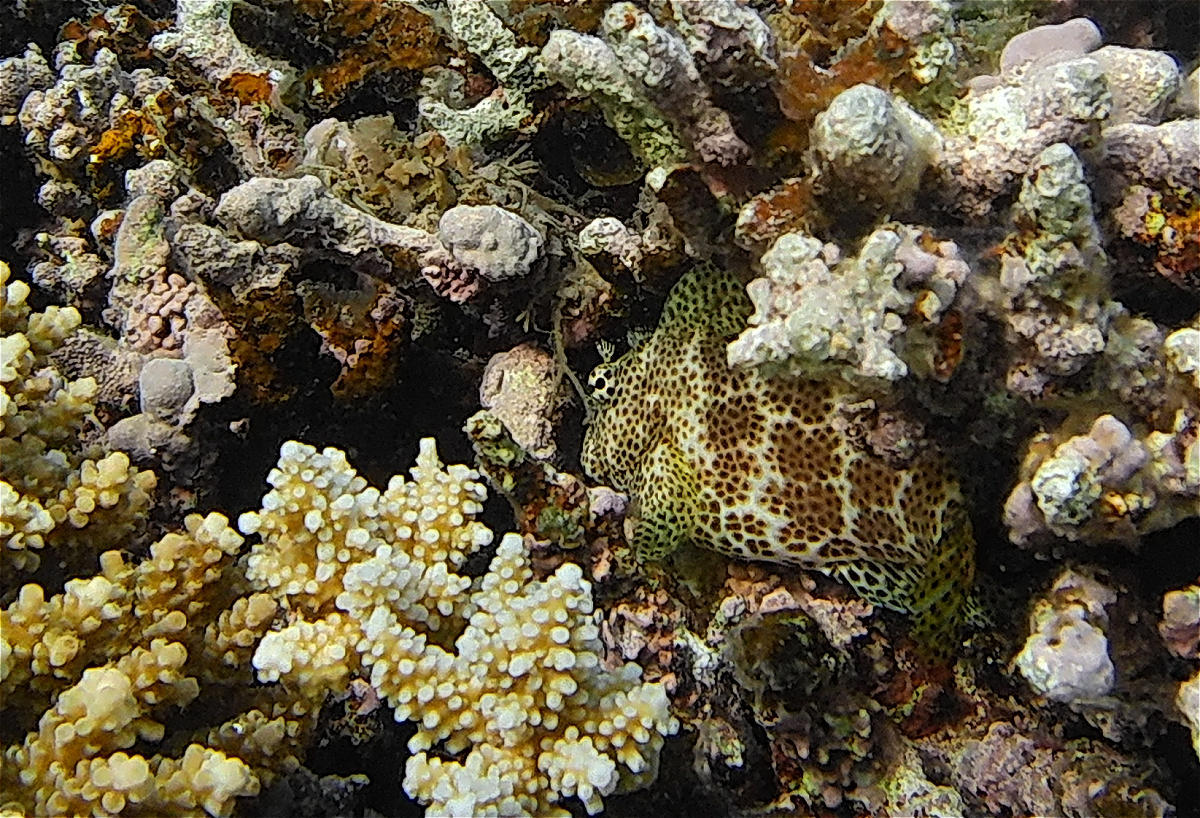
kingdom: Animalia
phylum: Chordata
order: Perciformes
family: Blenniidae
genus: Exallias
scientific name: Exallias brevis
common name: Leopard blenny
